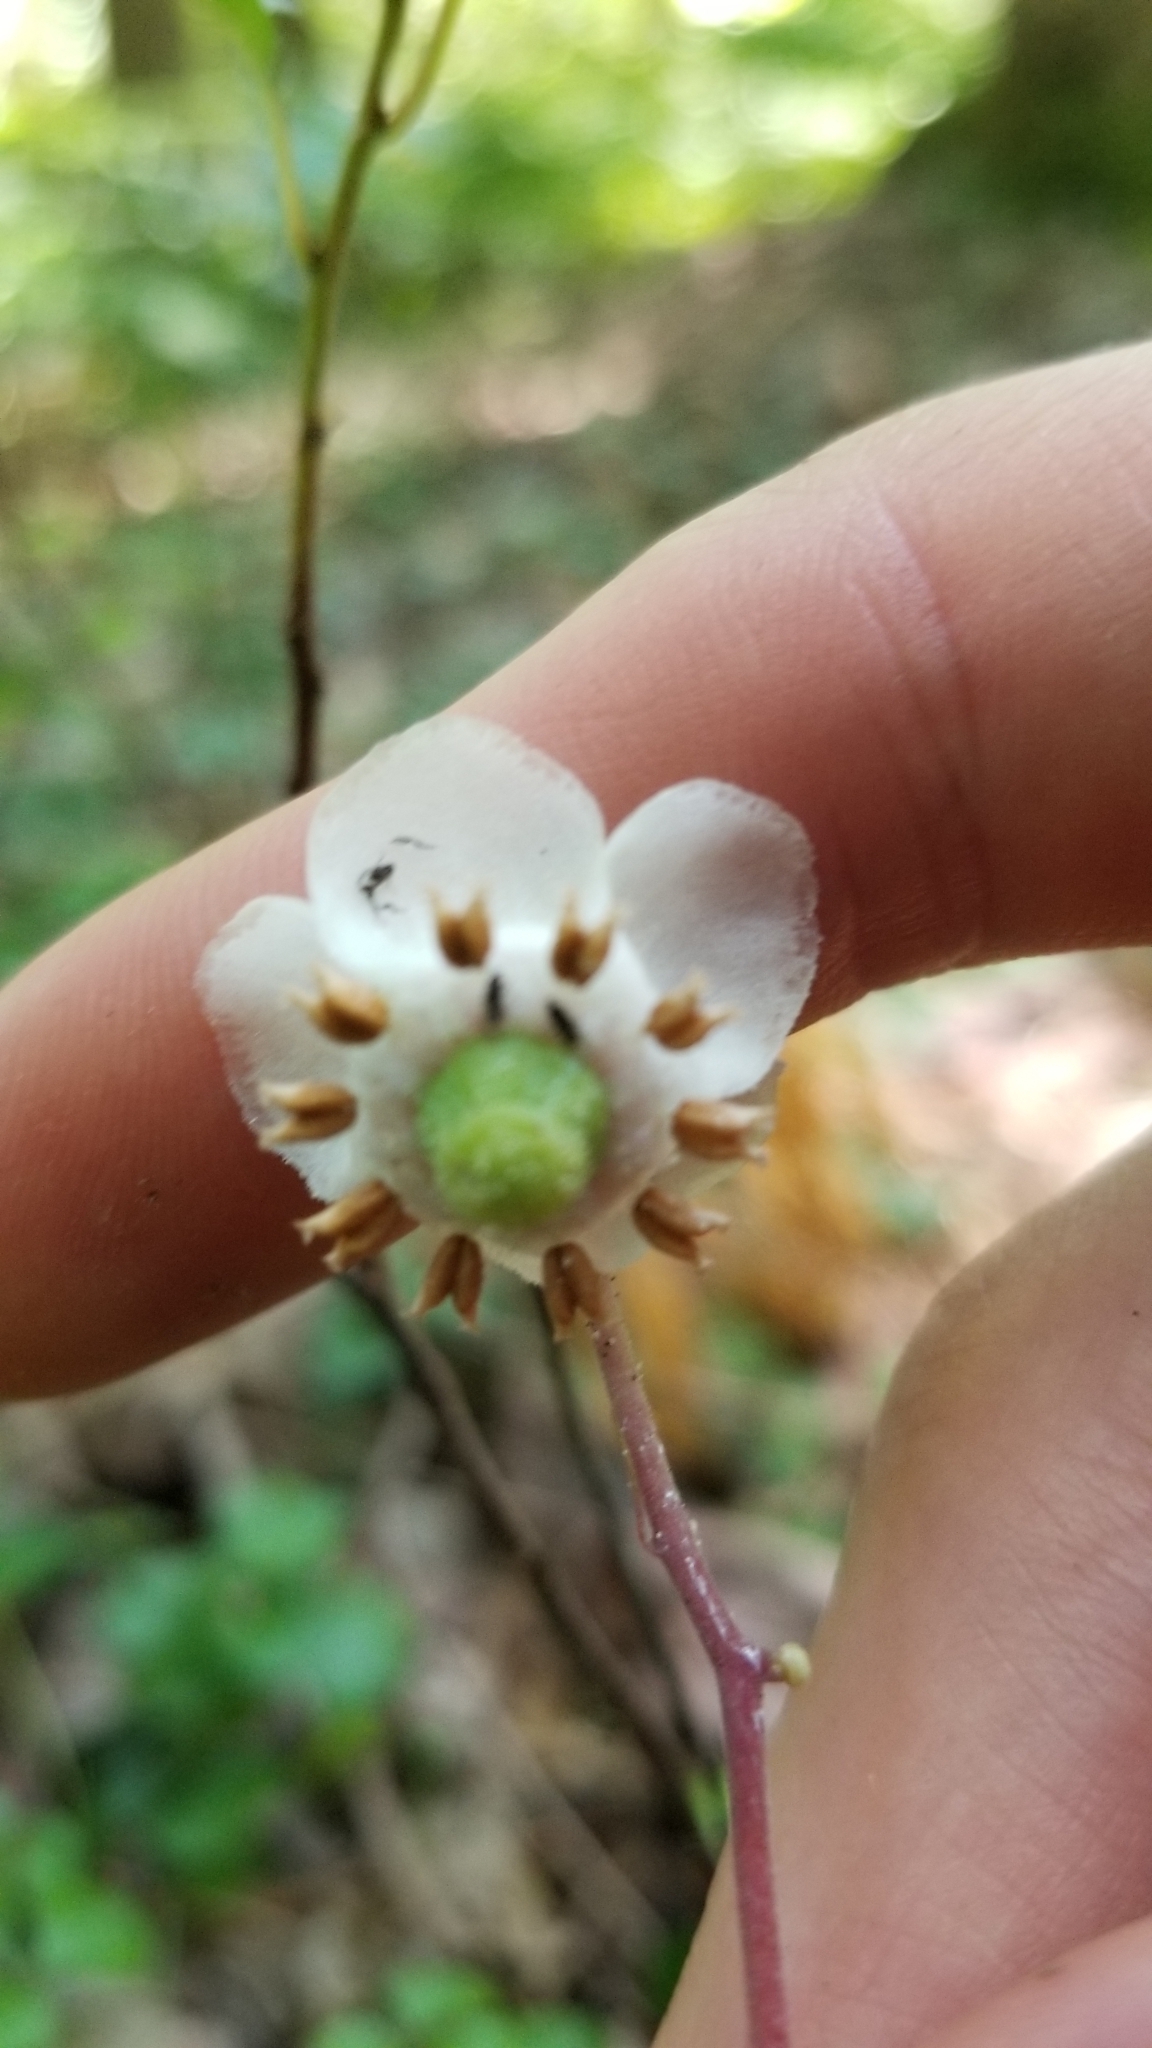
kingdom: Plantae
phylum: Tracheophyta
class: Magnoliopsida
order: Ericales
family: Ericaceae
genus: Chimaphila
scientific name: Chimaphila maculata
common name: Spotted pipsissewa
